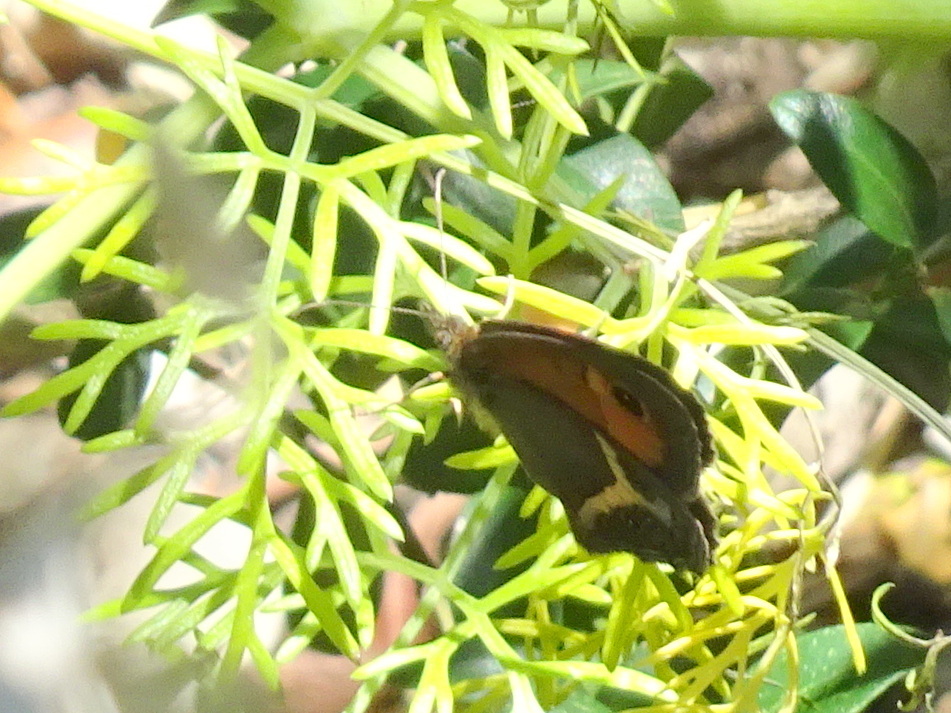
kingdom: Animalia
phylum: Arthropoda
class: Insecta
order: Lepidoptera
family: Nymphalidae
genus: Pyronia
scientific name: Pyronia bathseba
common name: Spanish gatekeeper
